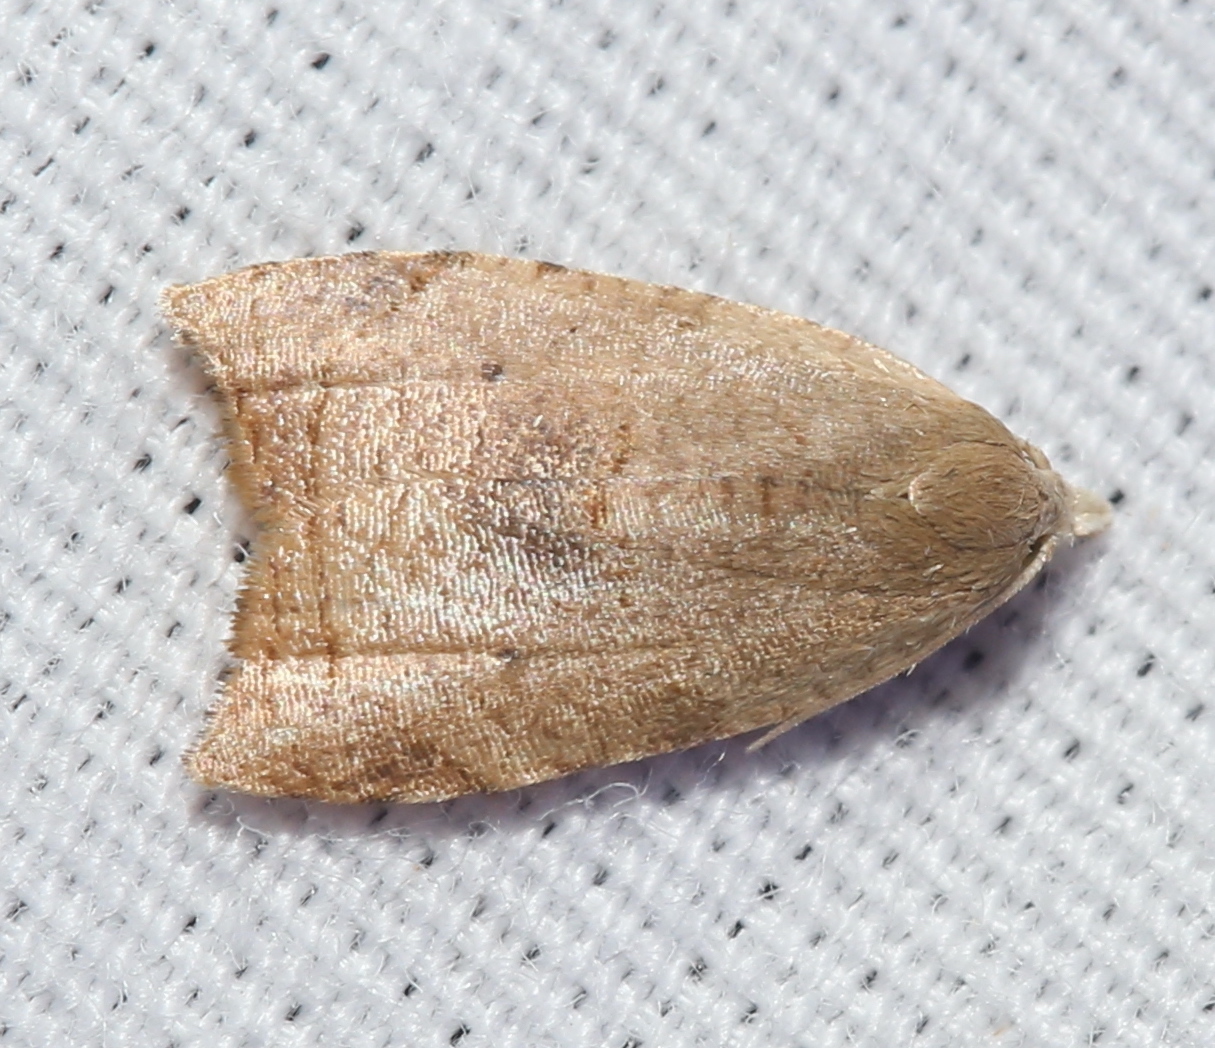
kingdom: Animalia
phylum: Arthropoda
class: Insecta
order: Lepidoptera
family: Tortricidae
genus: Coelostathma
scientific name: Coelostathma discopunctana
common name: Batman moth
